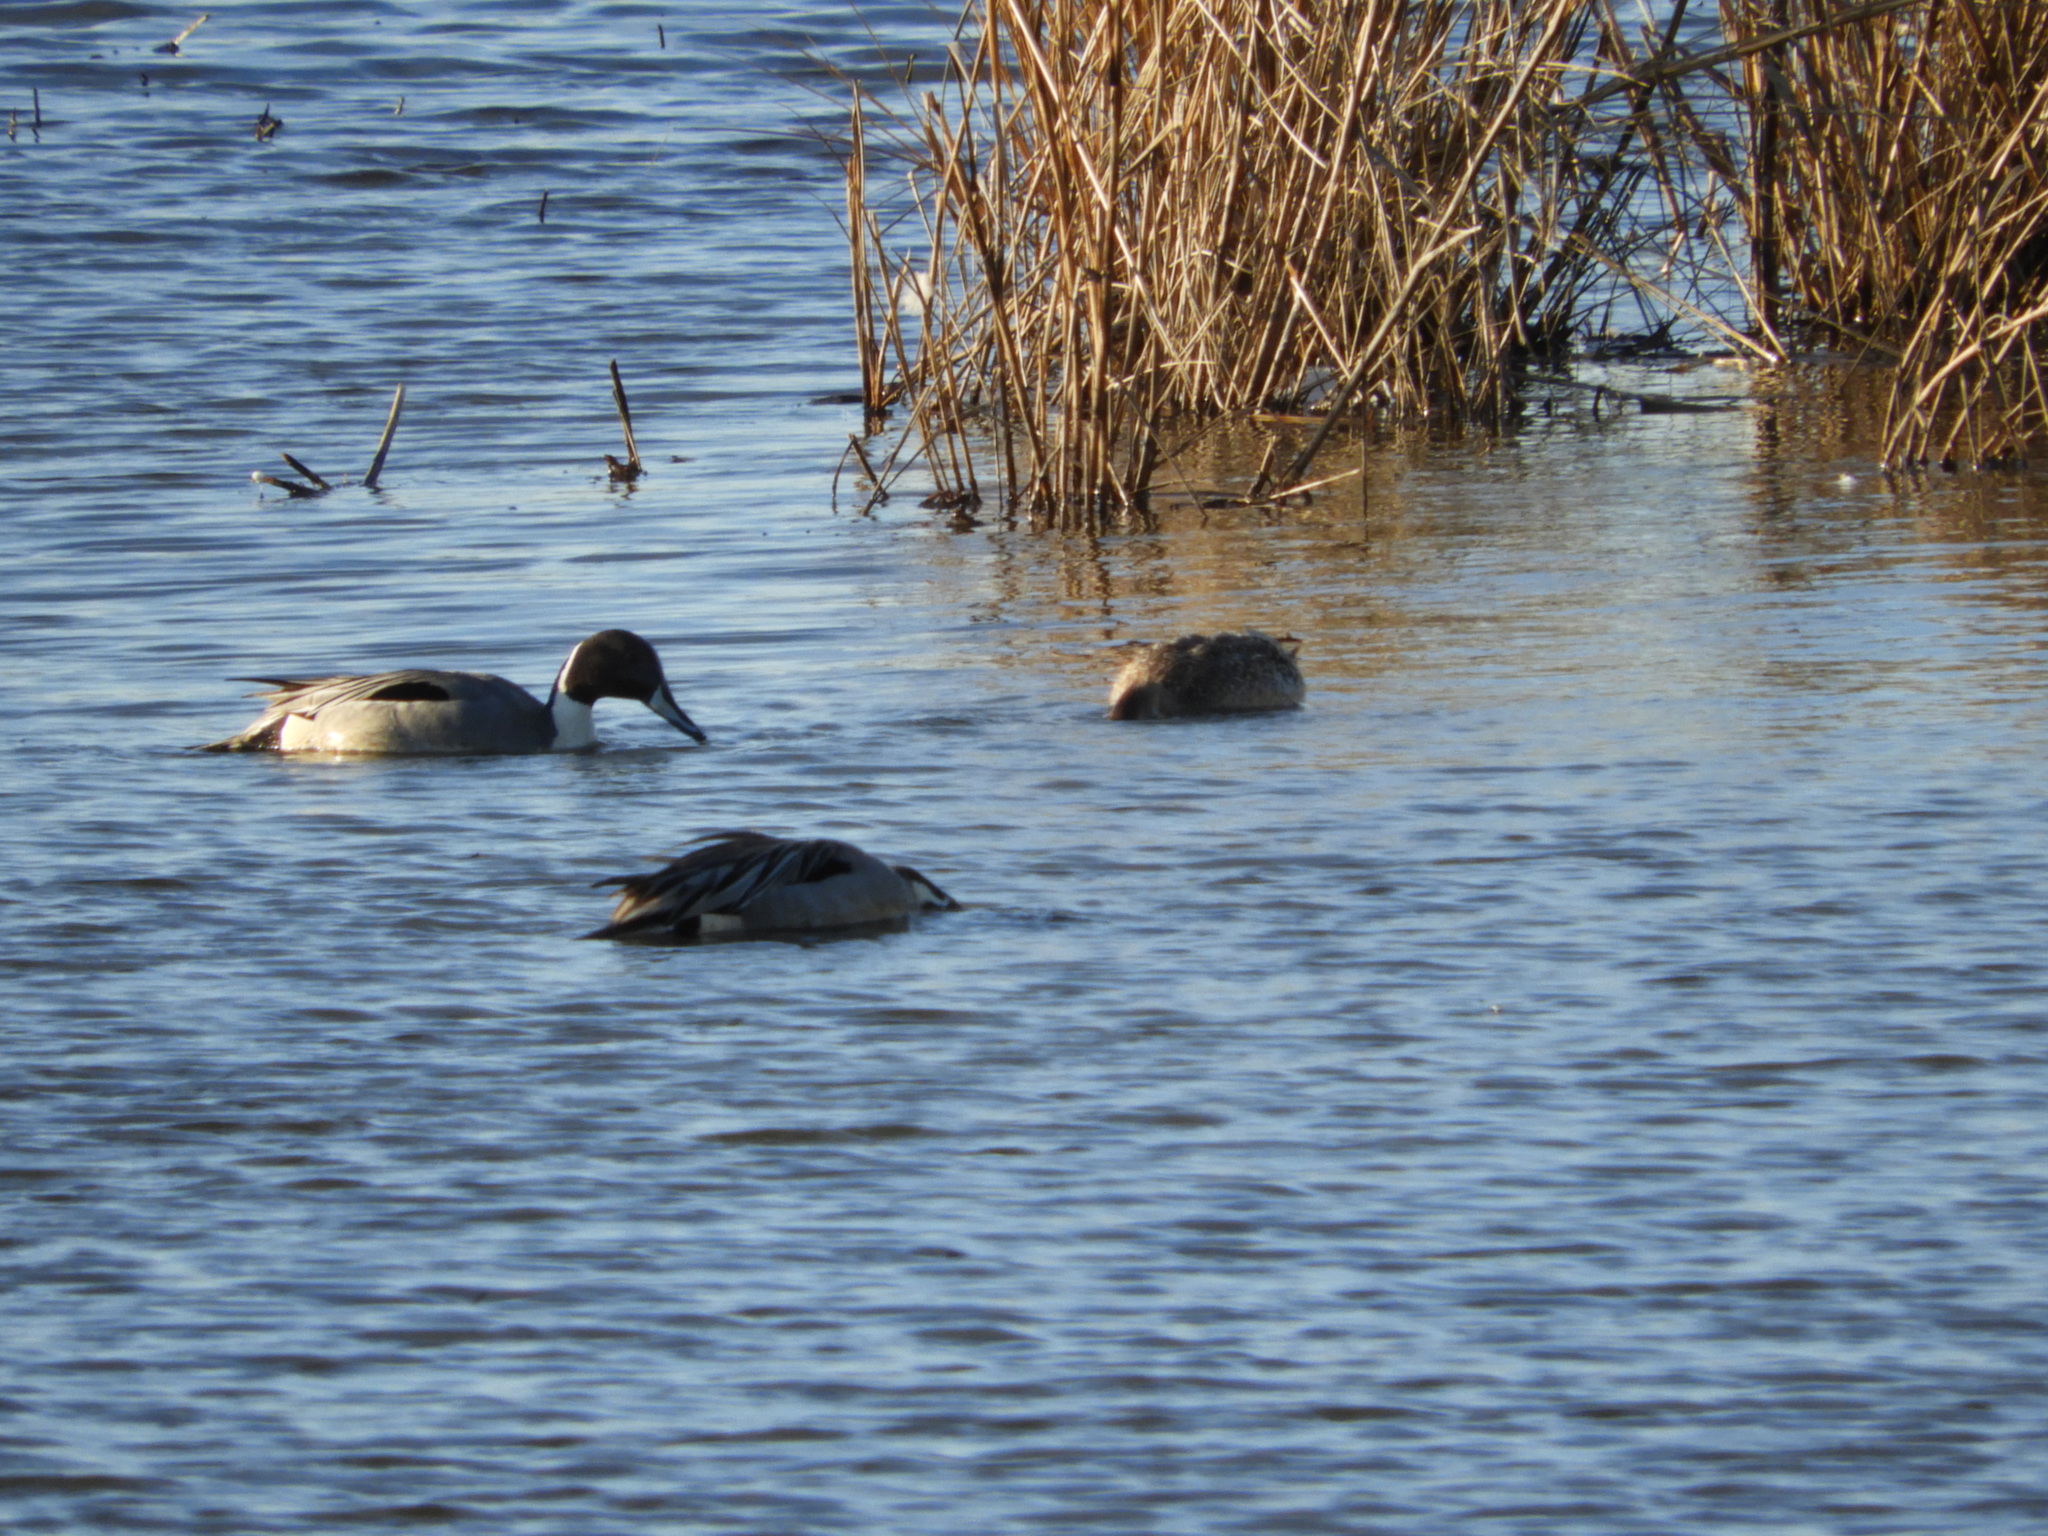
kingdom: Animalia
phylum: Chordata
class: Aves
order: Anseriformes
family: Anatidae
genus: Anas
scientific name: Anas acuta
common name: Northern pintail
